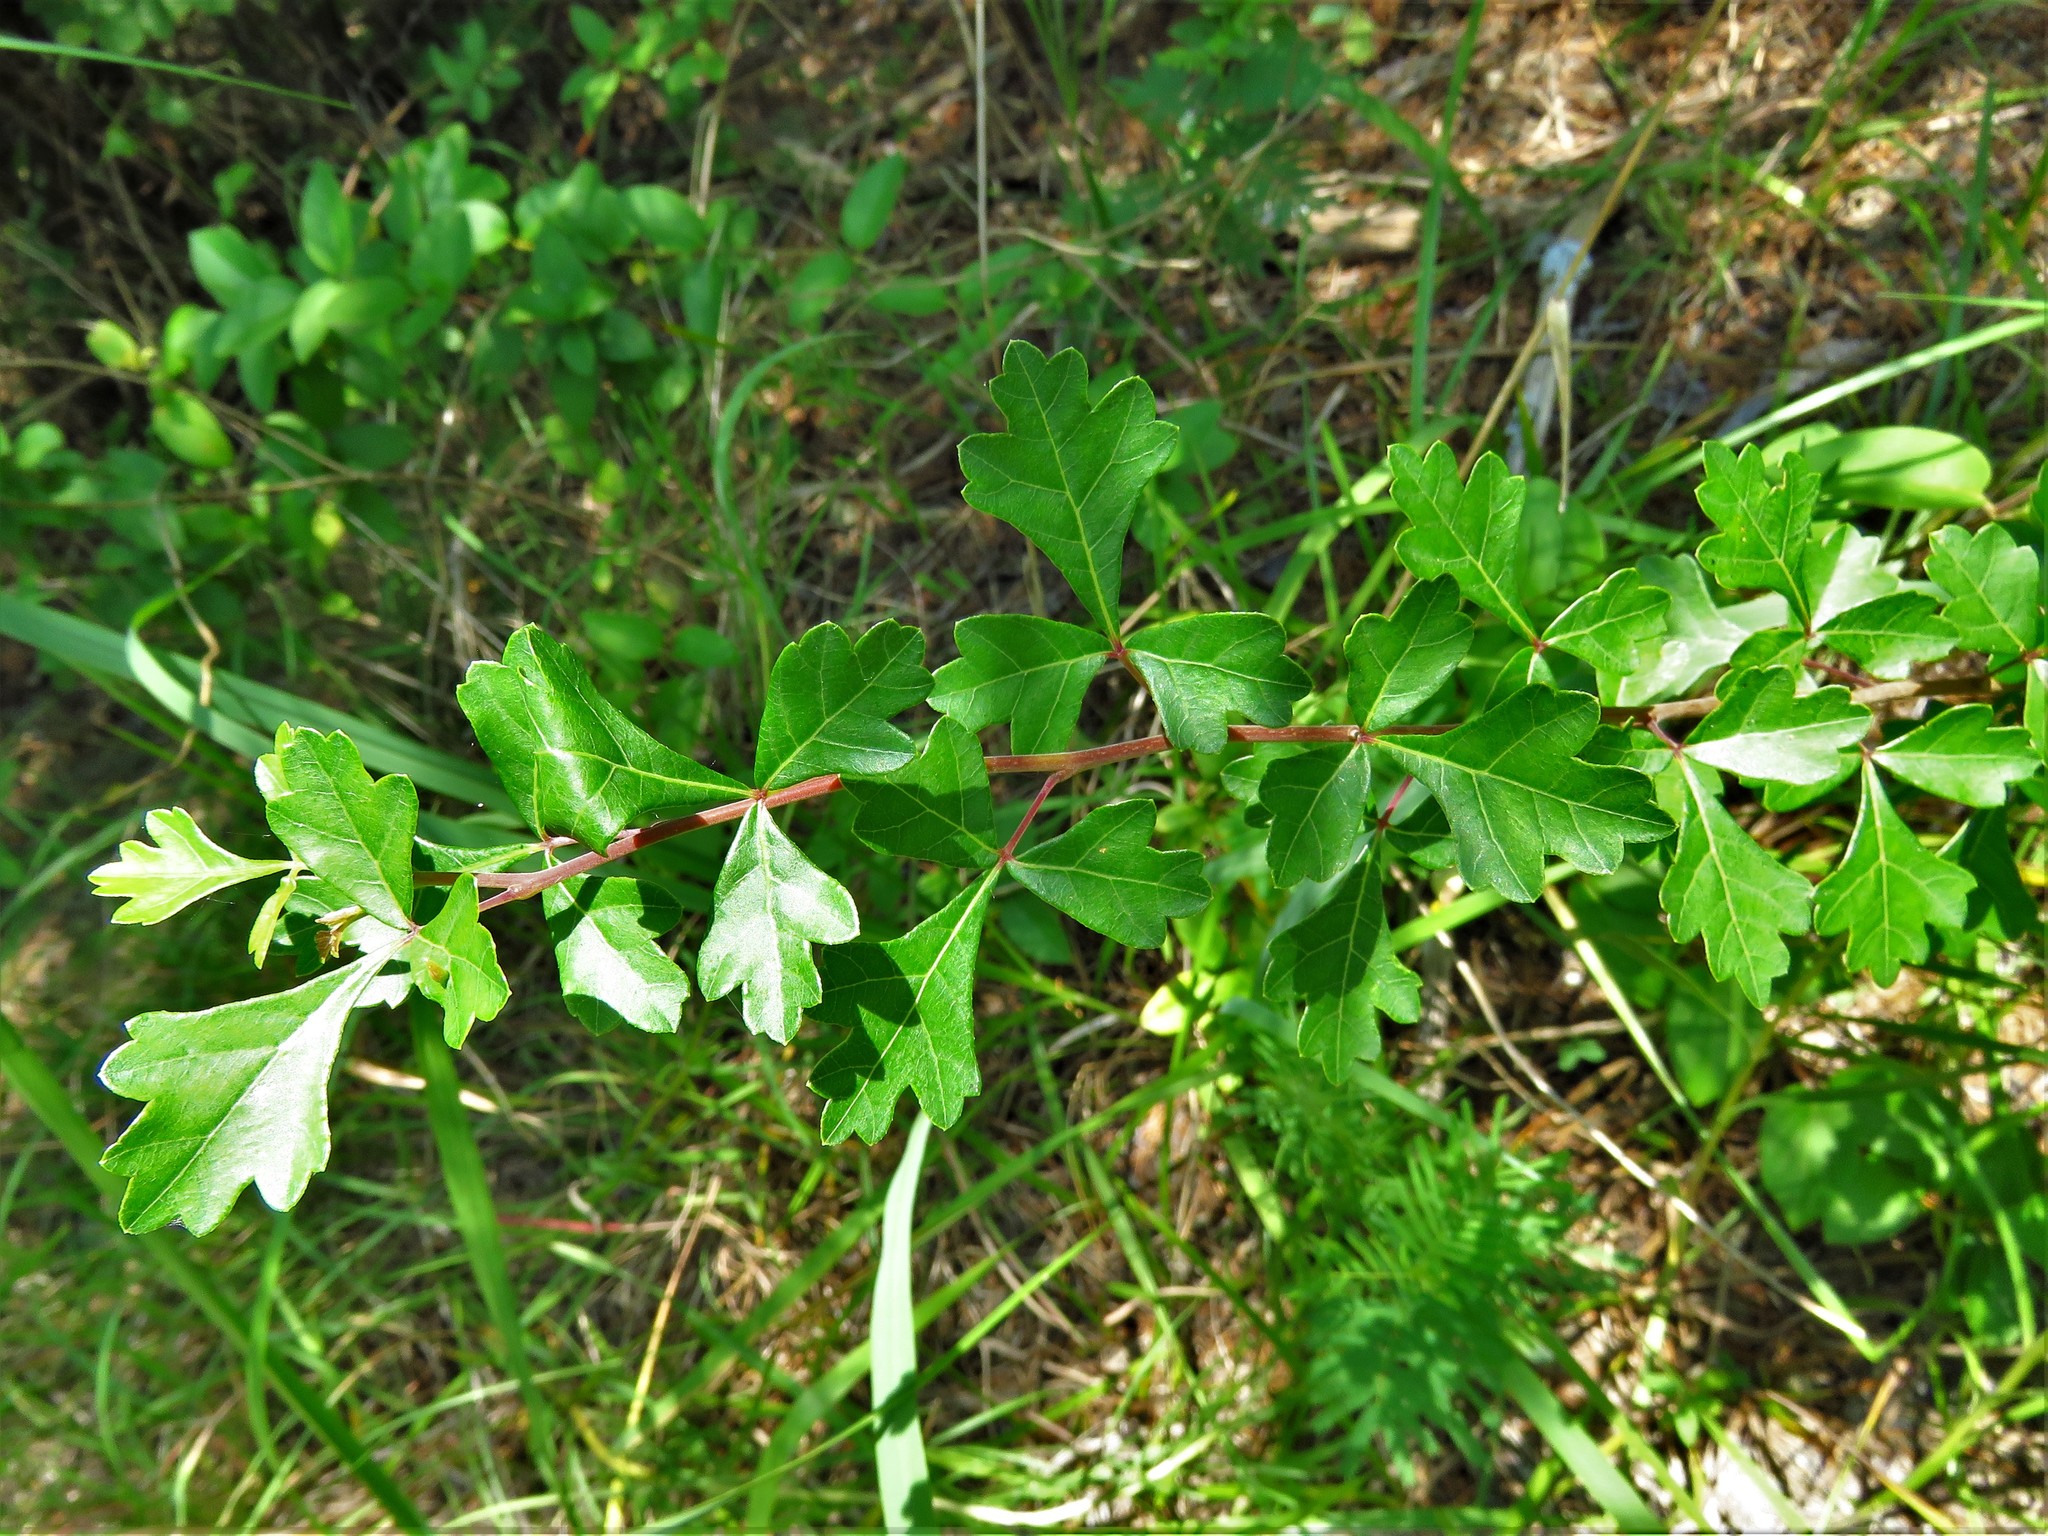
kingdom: Plantae
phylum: Tracheophyta
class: Magnoliopsida
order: Sapindales
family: Anacardiaceae
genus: Rhus
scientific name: Rhus aromatica
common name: Aromatic sumac
